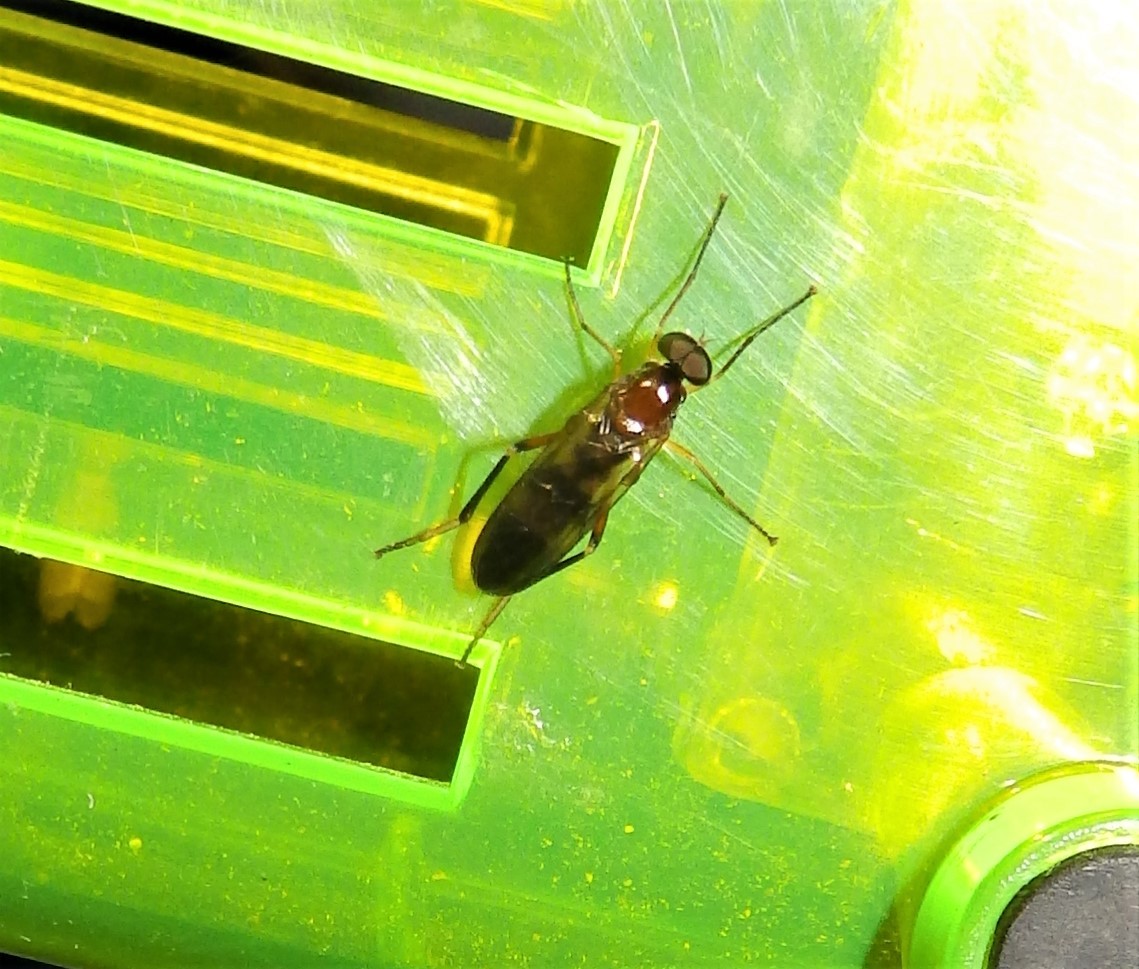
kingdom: Animalia
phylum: Arthropoda
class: Insecta
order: Diptera
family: Xylophagidae
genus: Dialysis
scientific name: Dialysis fasciventris
